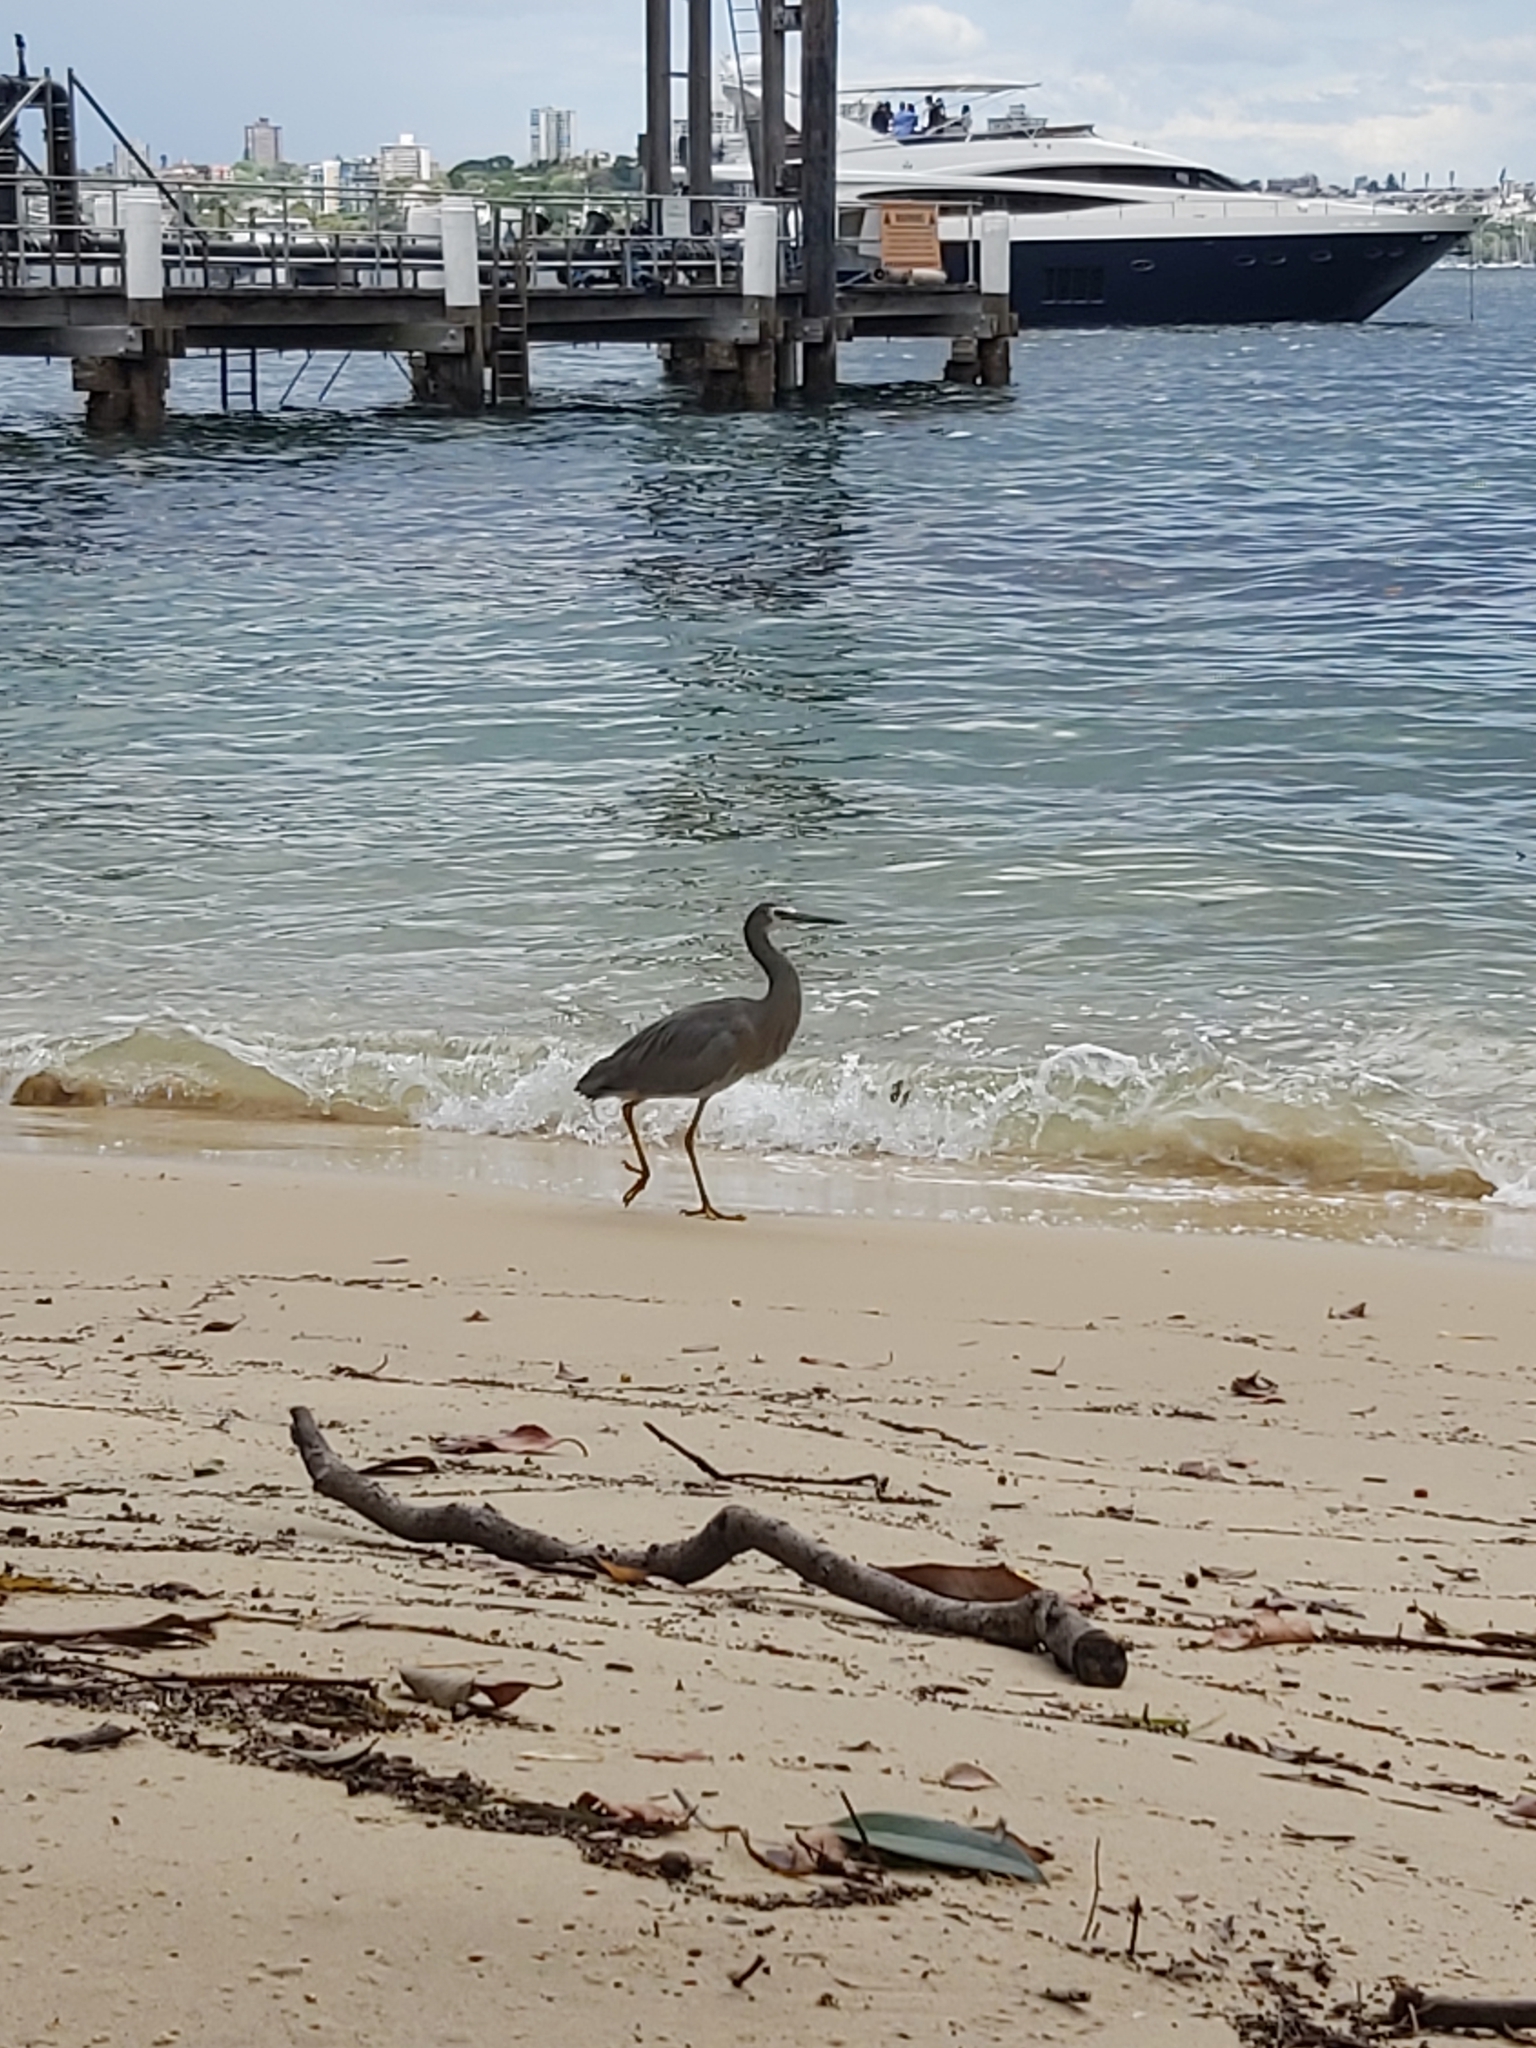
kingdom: Animalia
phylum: Chordata
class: Aves
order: Pelecaniformes
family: Ardeidae
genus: Egretta
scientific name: Egretta novaehollandiae
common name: White-faced heron
